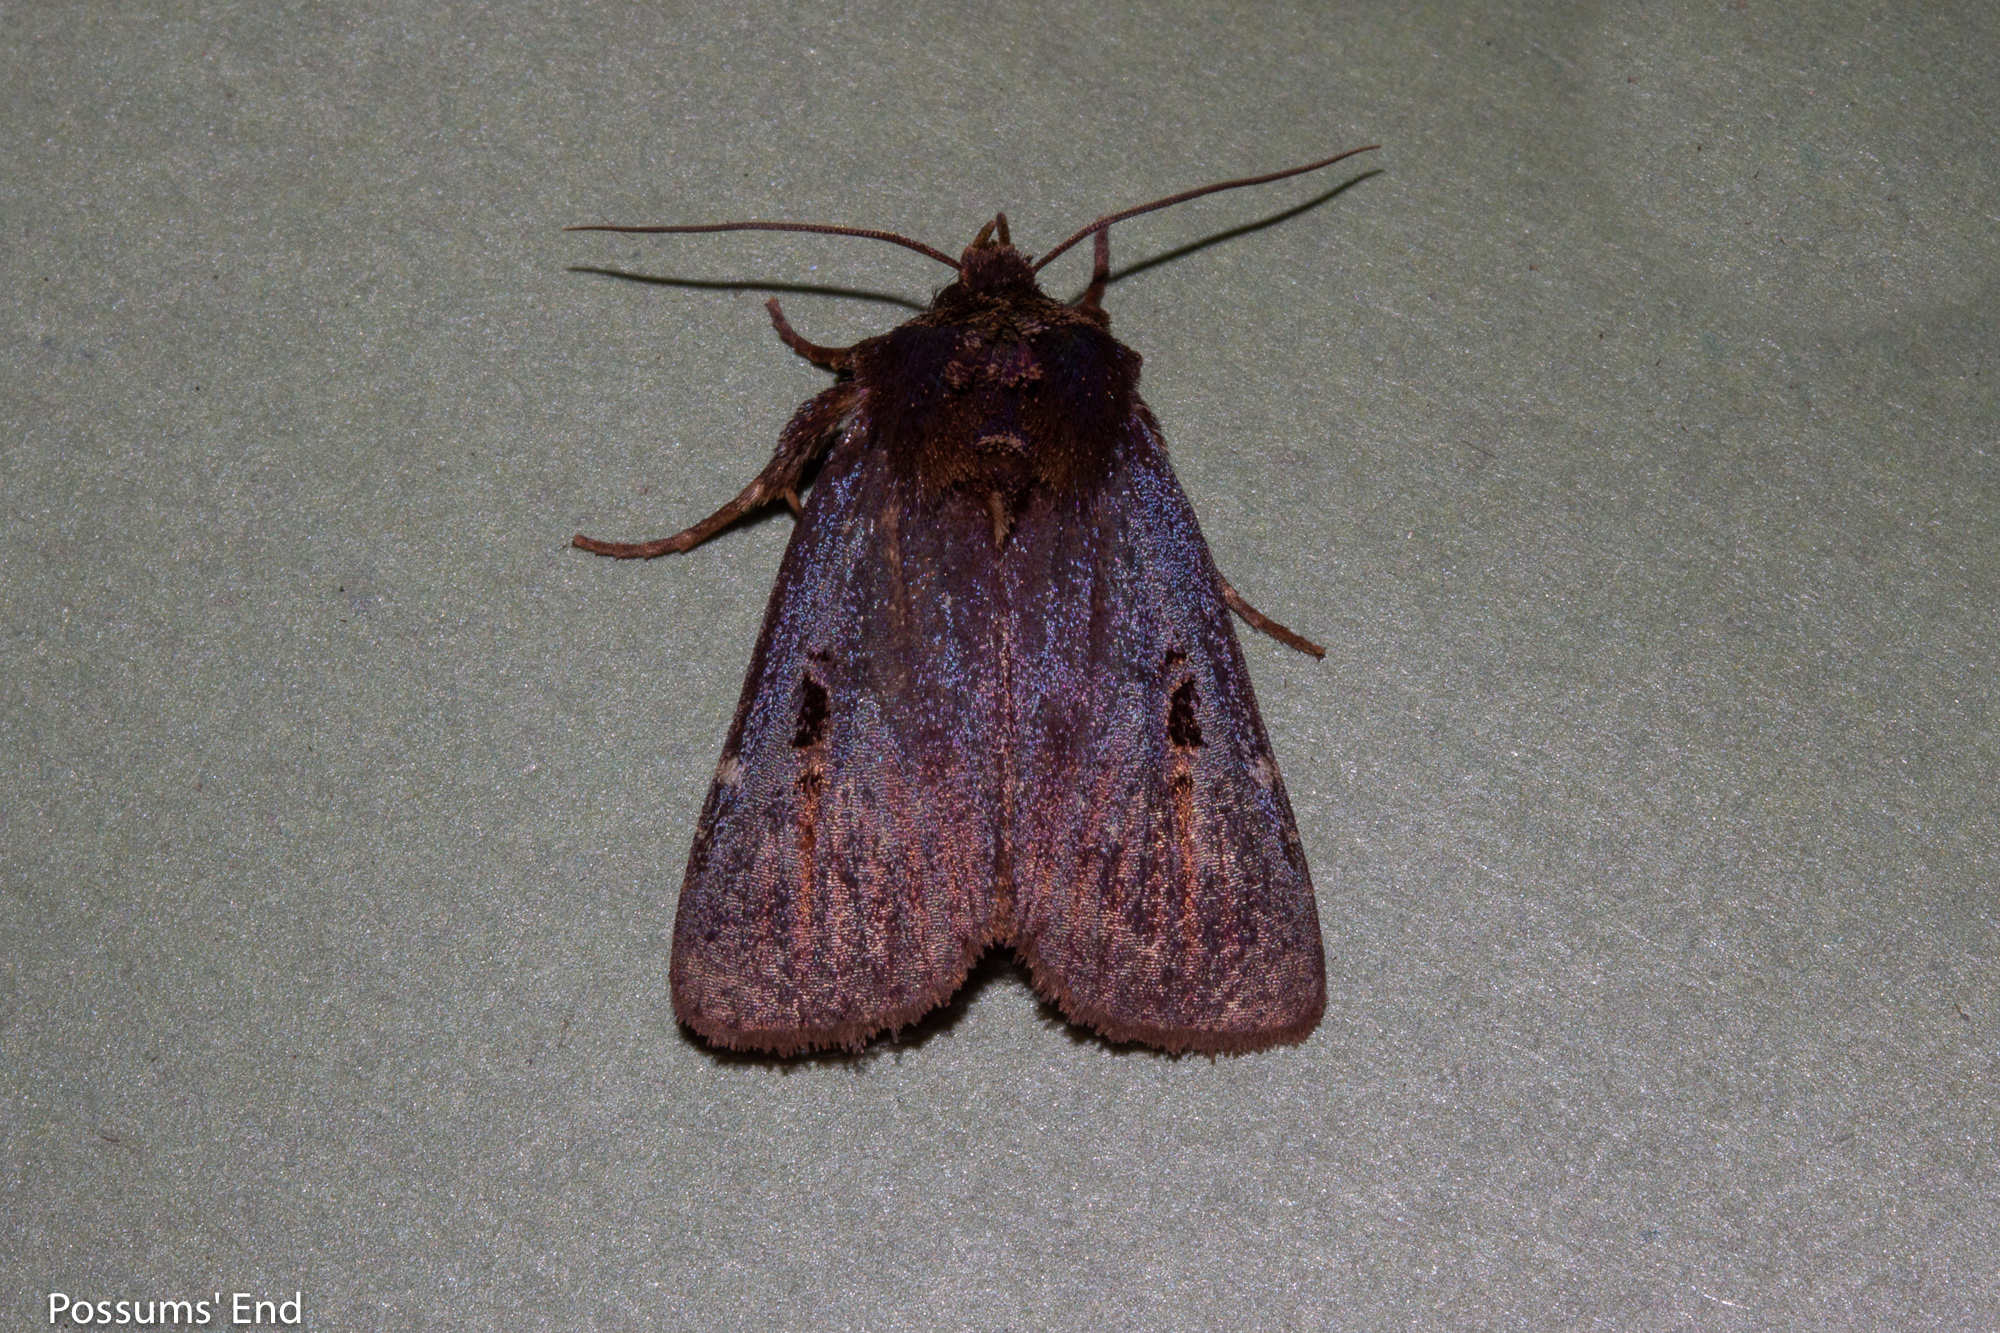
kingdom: Animalia
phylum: Arthropoda
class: Insecta
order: Lepidoptera
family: Noctuidae
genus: Austramathes
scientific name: Austramathes purpurea
